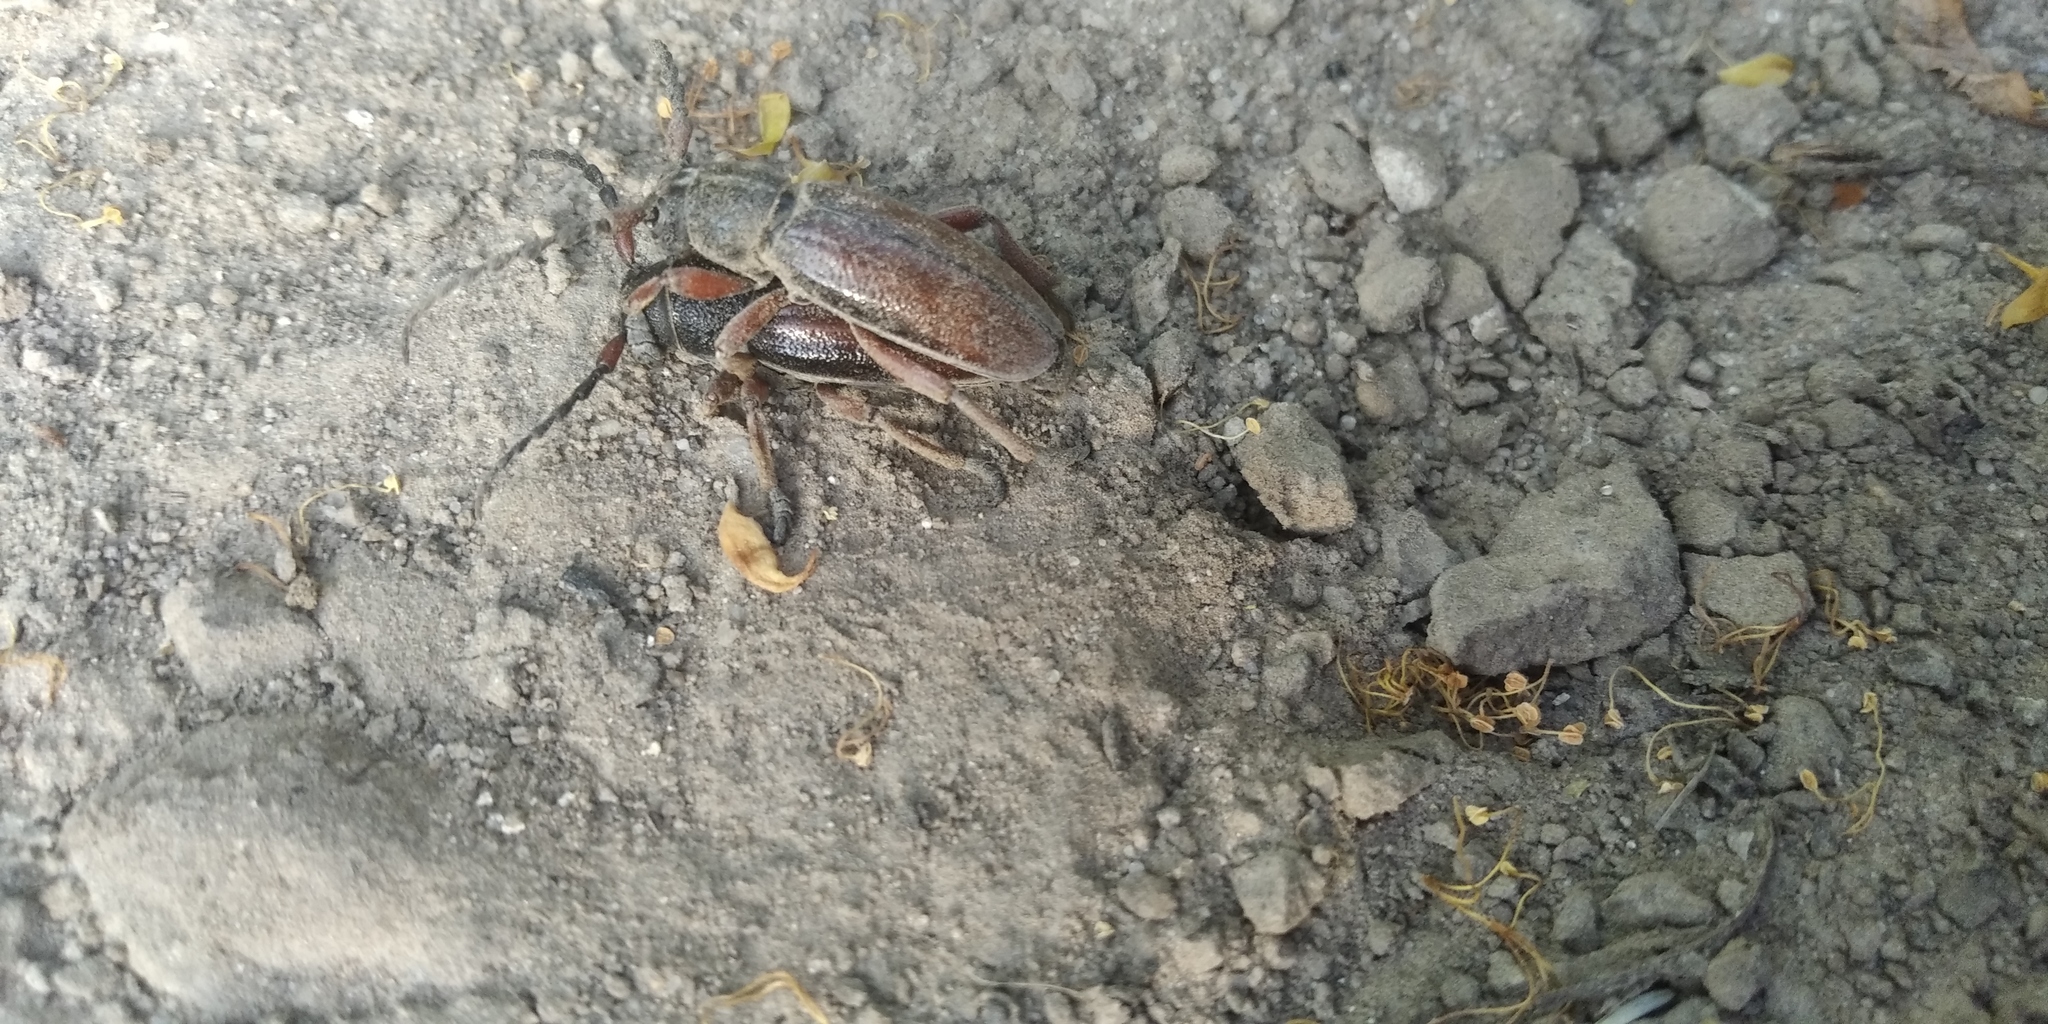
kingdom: Animalia
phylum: Arthropoda
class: Insecta
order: Coleoptera
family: Cerambycidae
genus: Dorcadion
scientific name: Dorcadion fulvum
